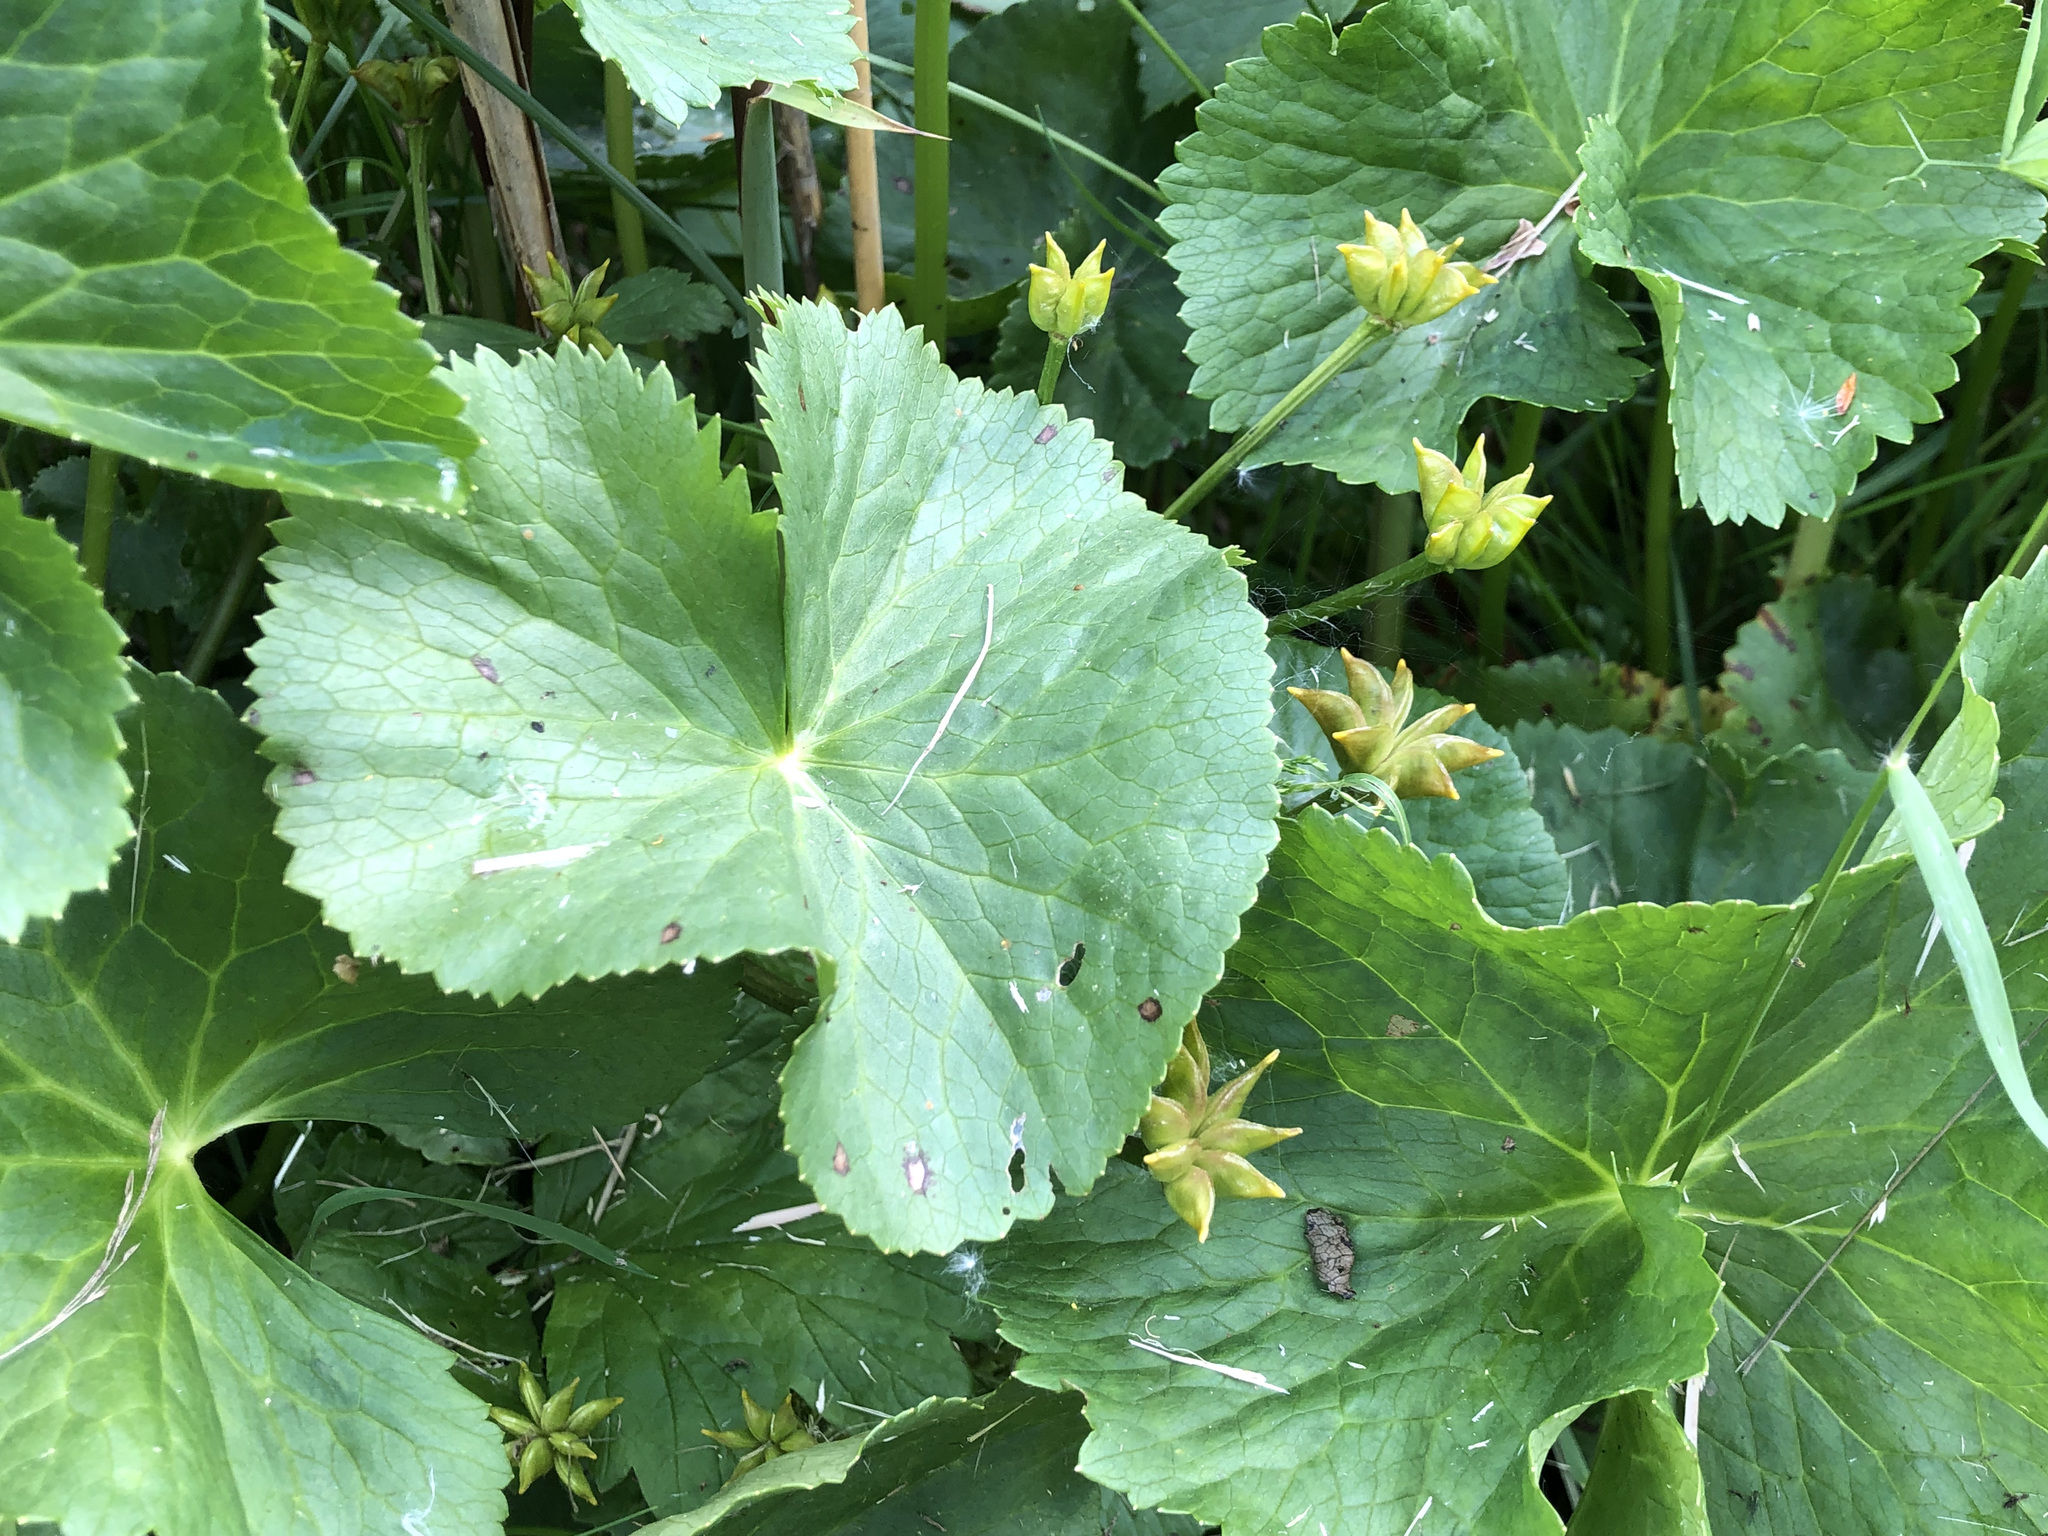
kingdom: Plantae
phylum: Tracheophyta
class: Magnoliopsida
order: Ranunculales
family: Ranunculaceae
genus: Caltha
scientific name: Caltha palustris
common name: Marsh marigold
